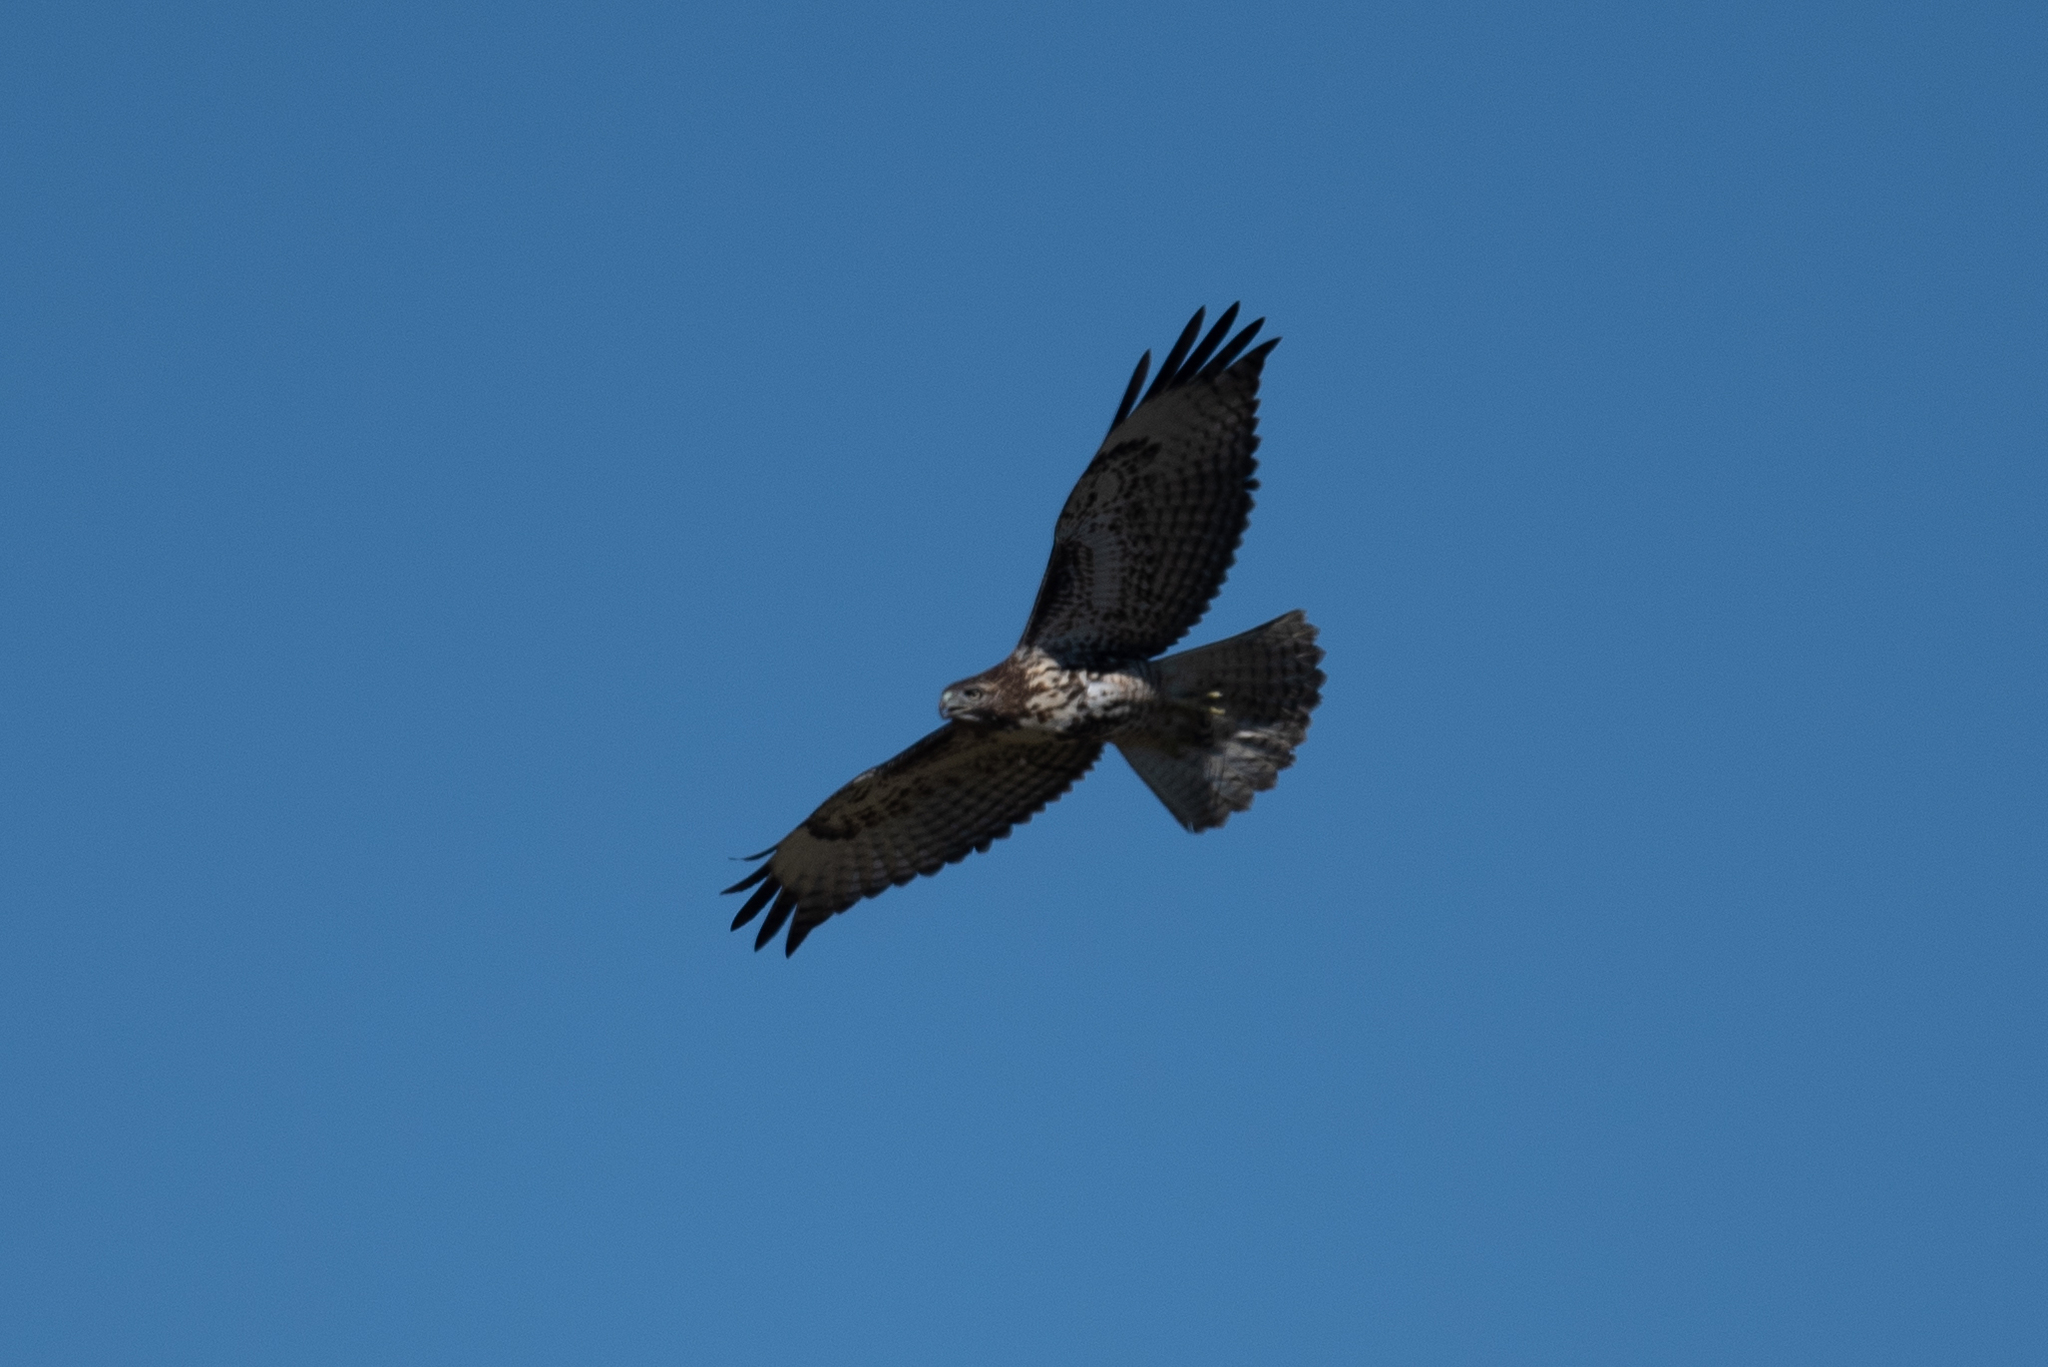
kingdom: Animalia
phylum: Chordata
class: Aves
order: Accipitriformes
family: Accipitridae
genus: Buteo
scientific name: Buteo jamaicensis
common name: Red-tailed hawk
